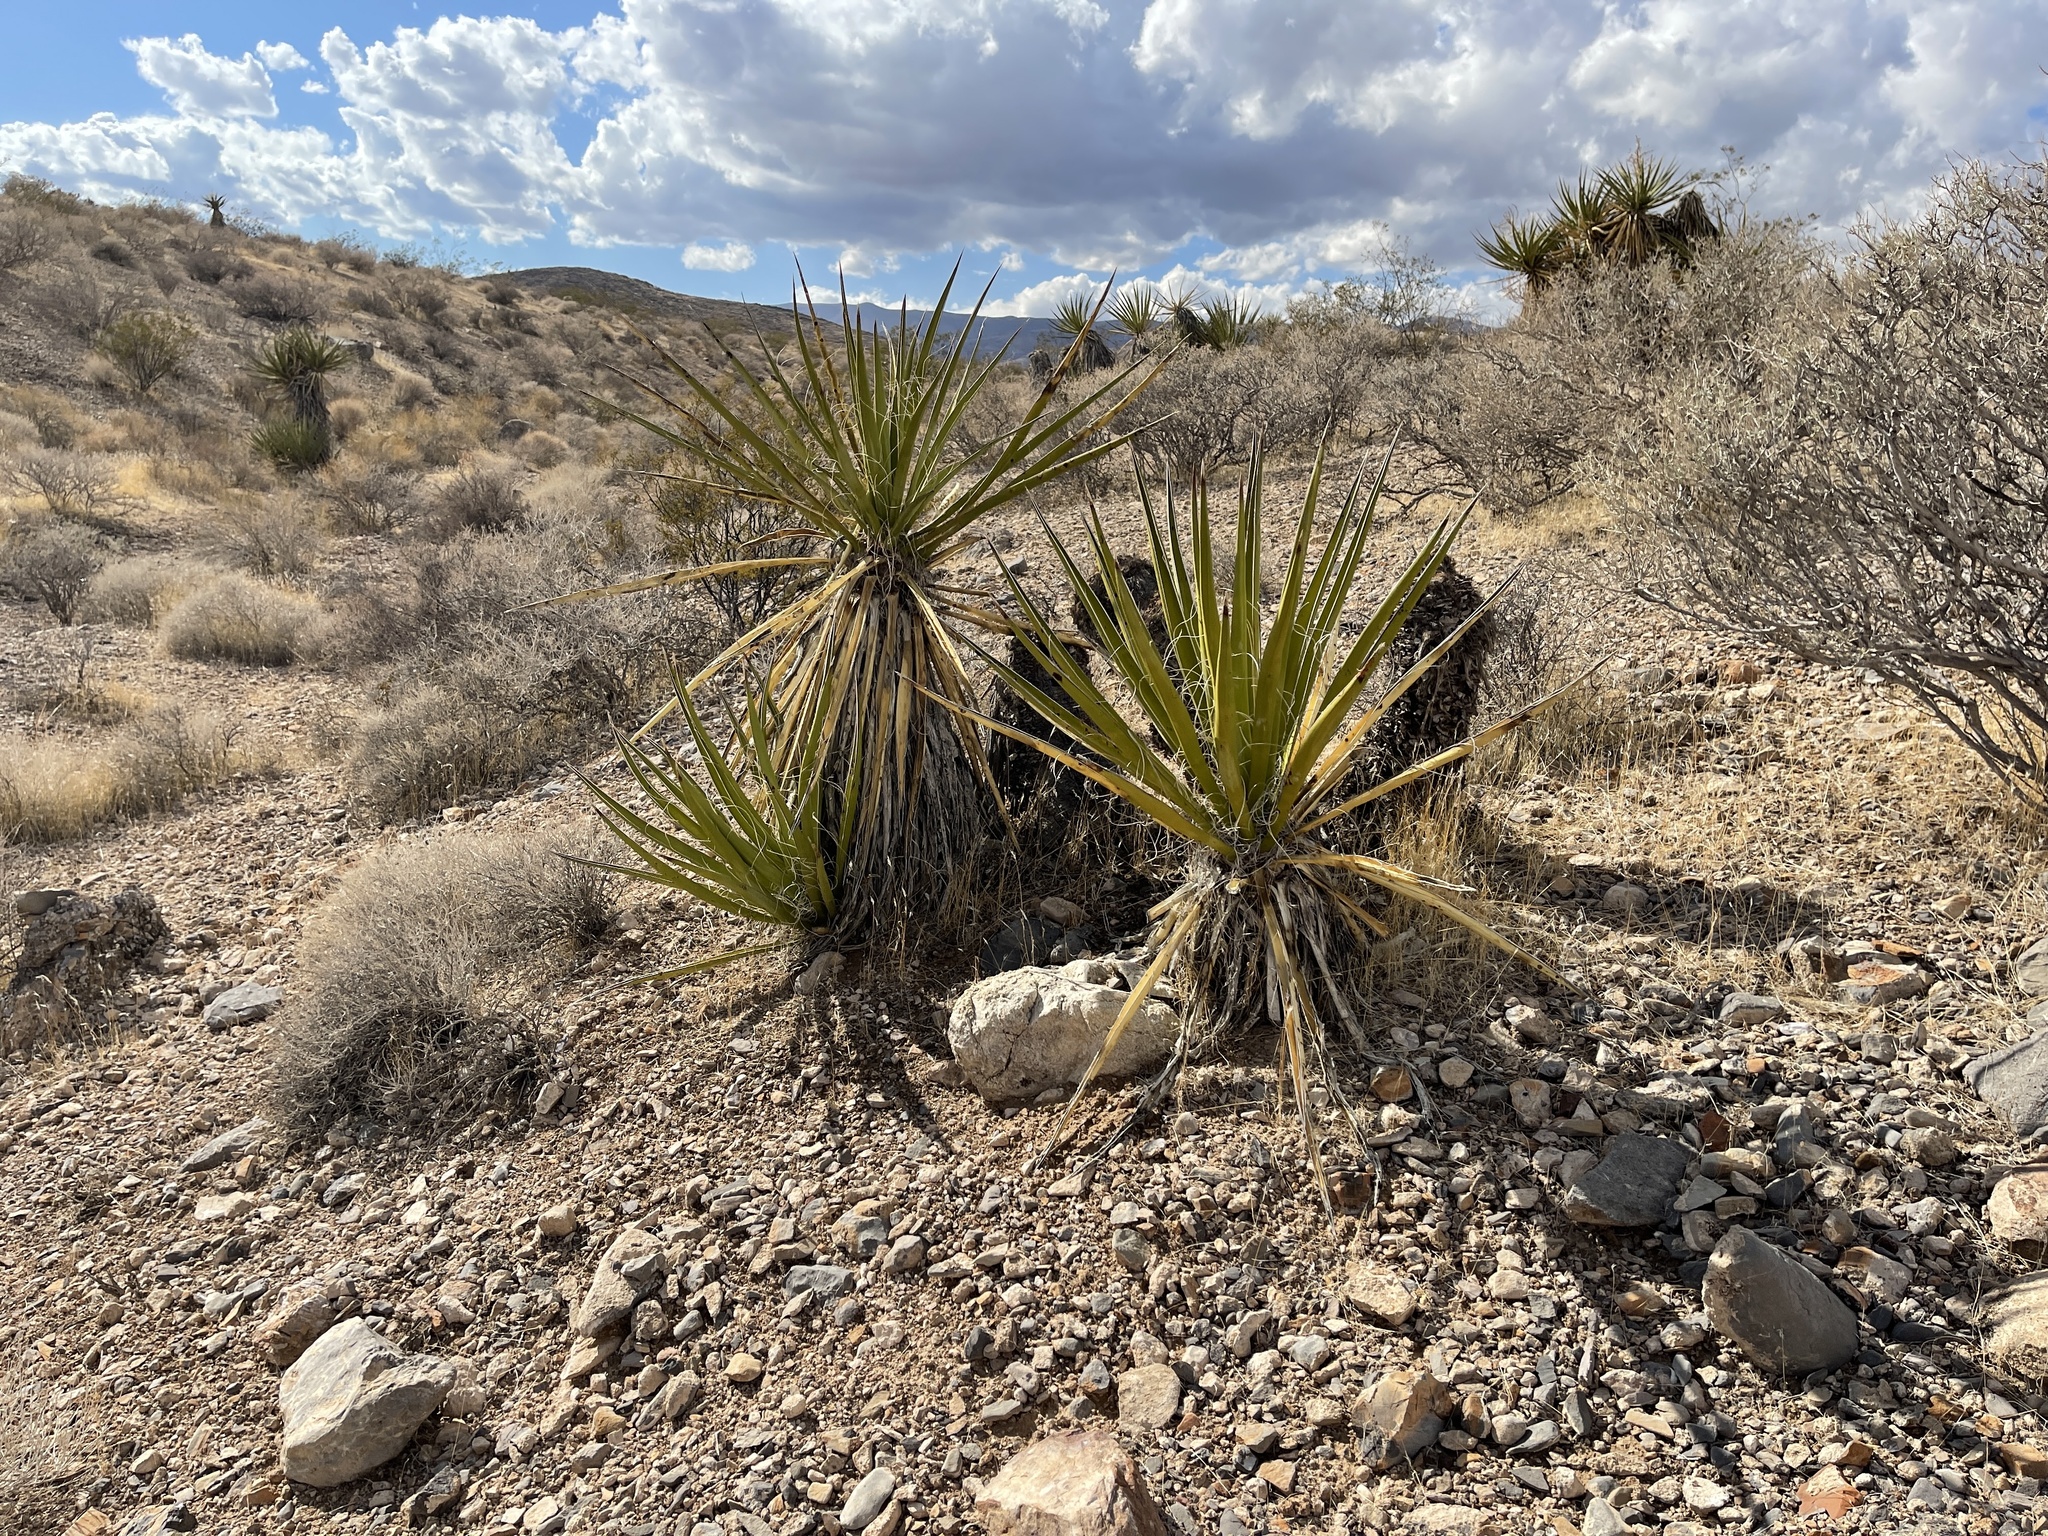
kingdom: Plantae
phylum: Tracheophyta
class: Liliopsida
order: Asparagales
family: Asparagaceae
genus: Yucca
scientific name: Yucca schidigera
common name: Mojave yucca
